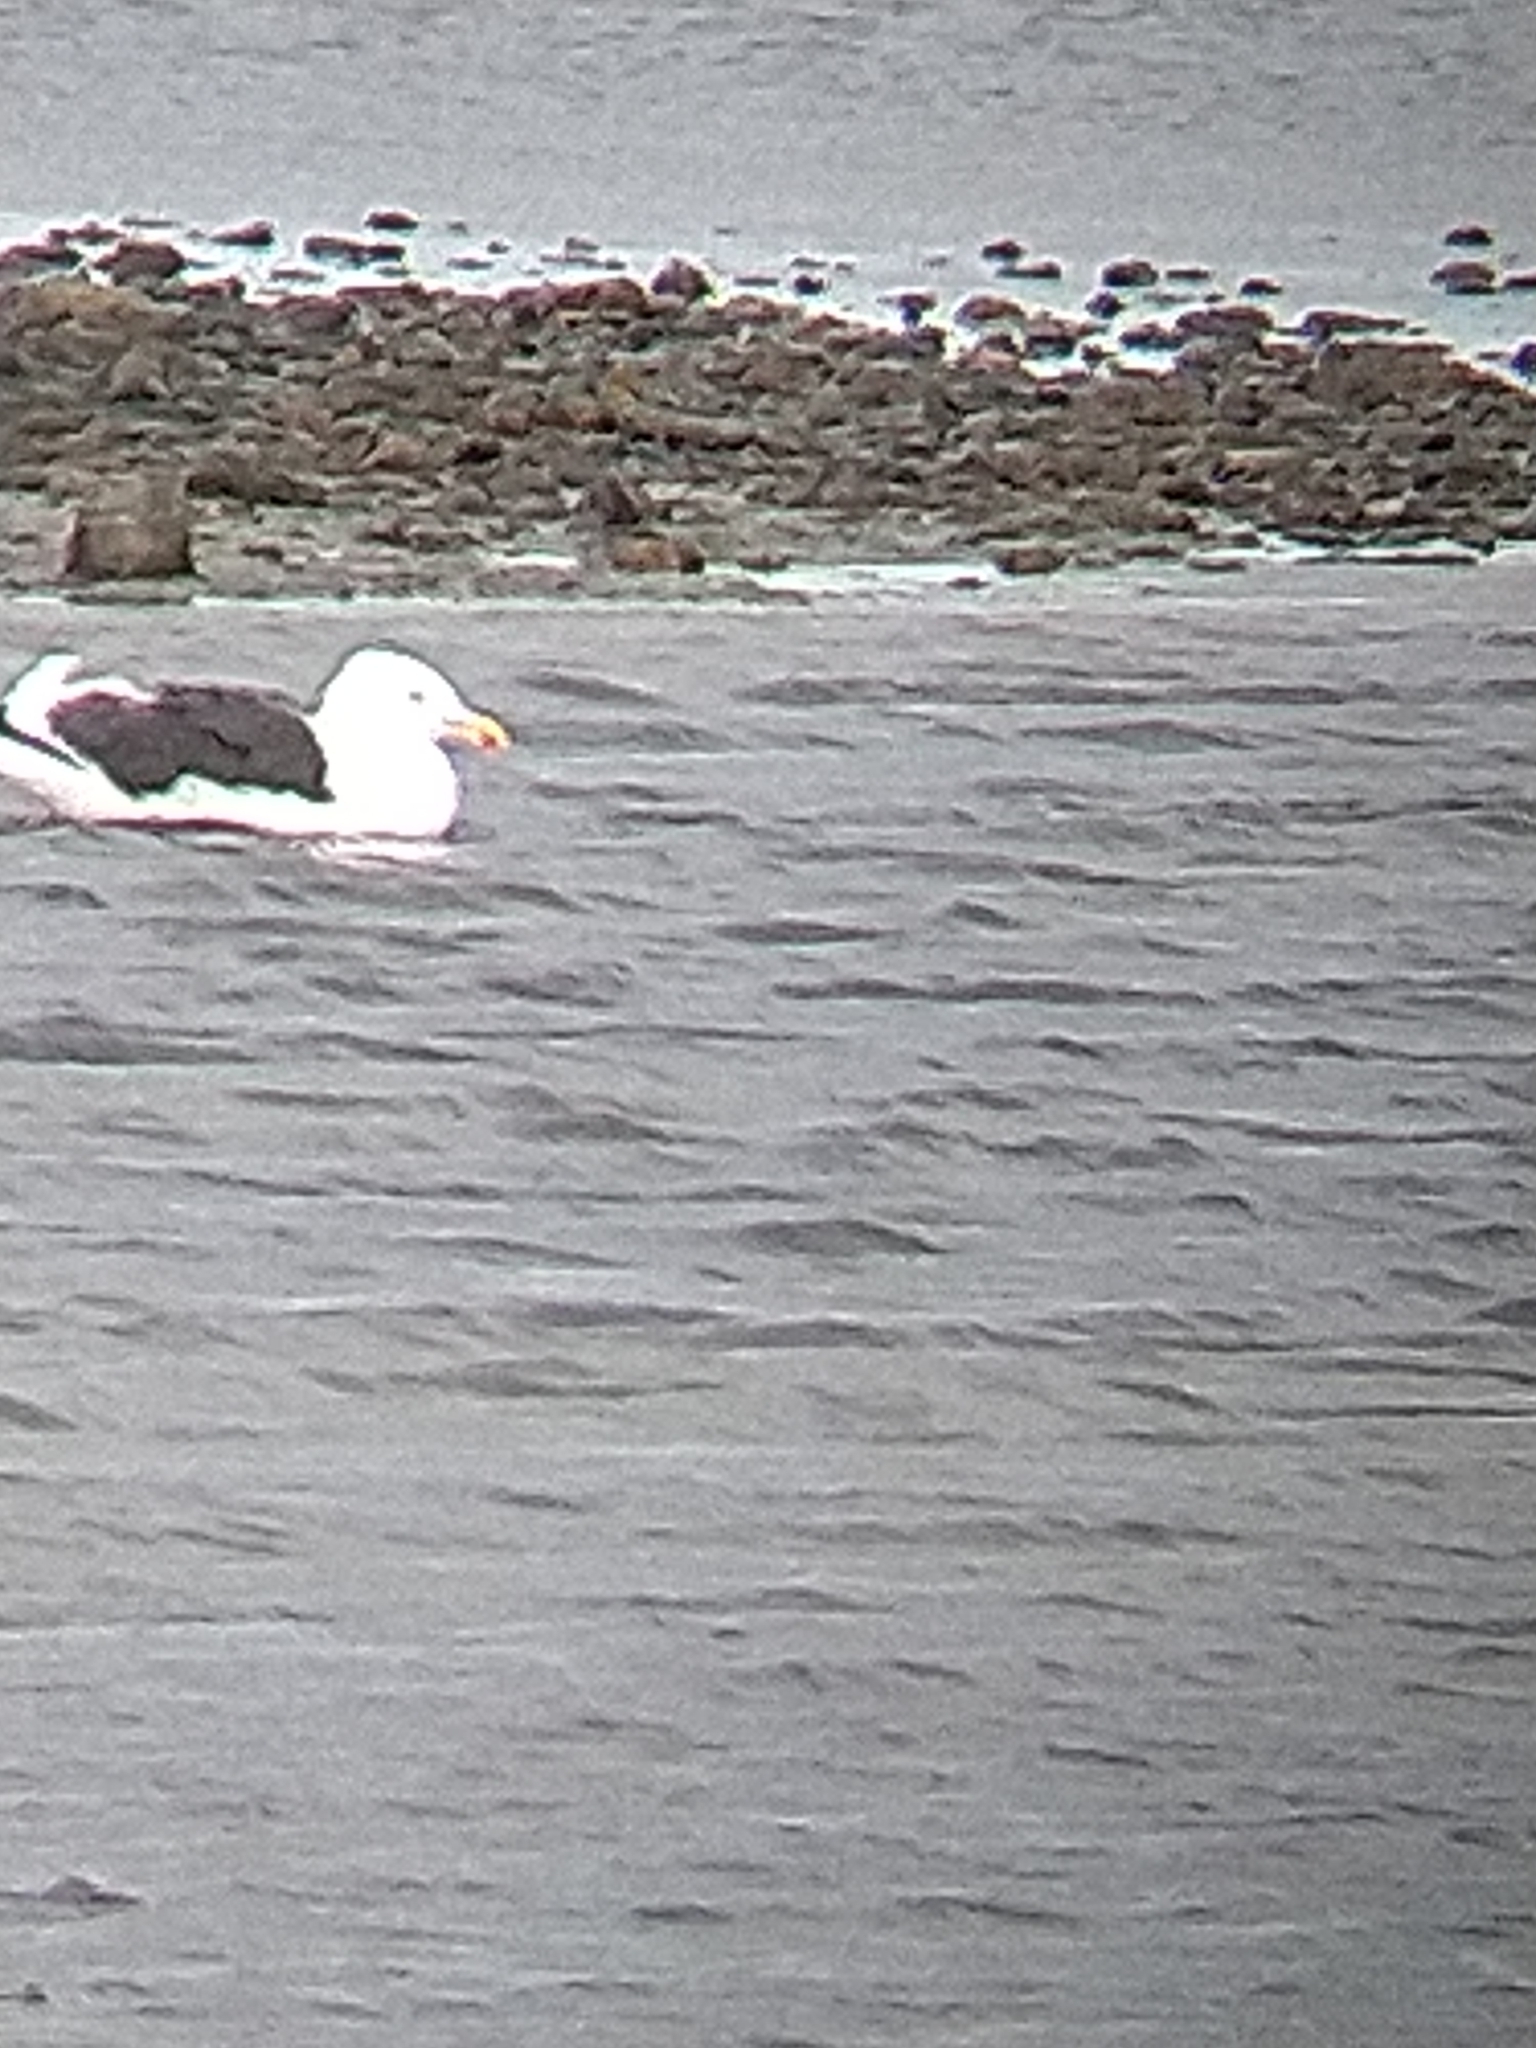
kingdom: Animalia
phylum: Chordata
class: Aves
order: Charadriiformes
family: Laridae
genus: Larus
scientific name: Larus dominicanus
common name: Kelp gull
